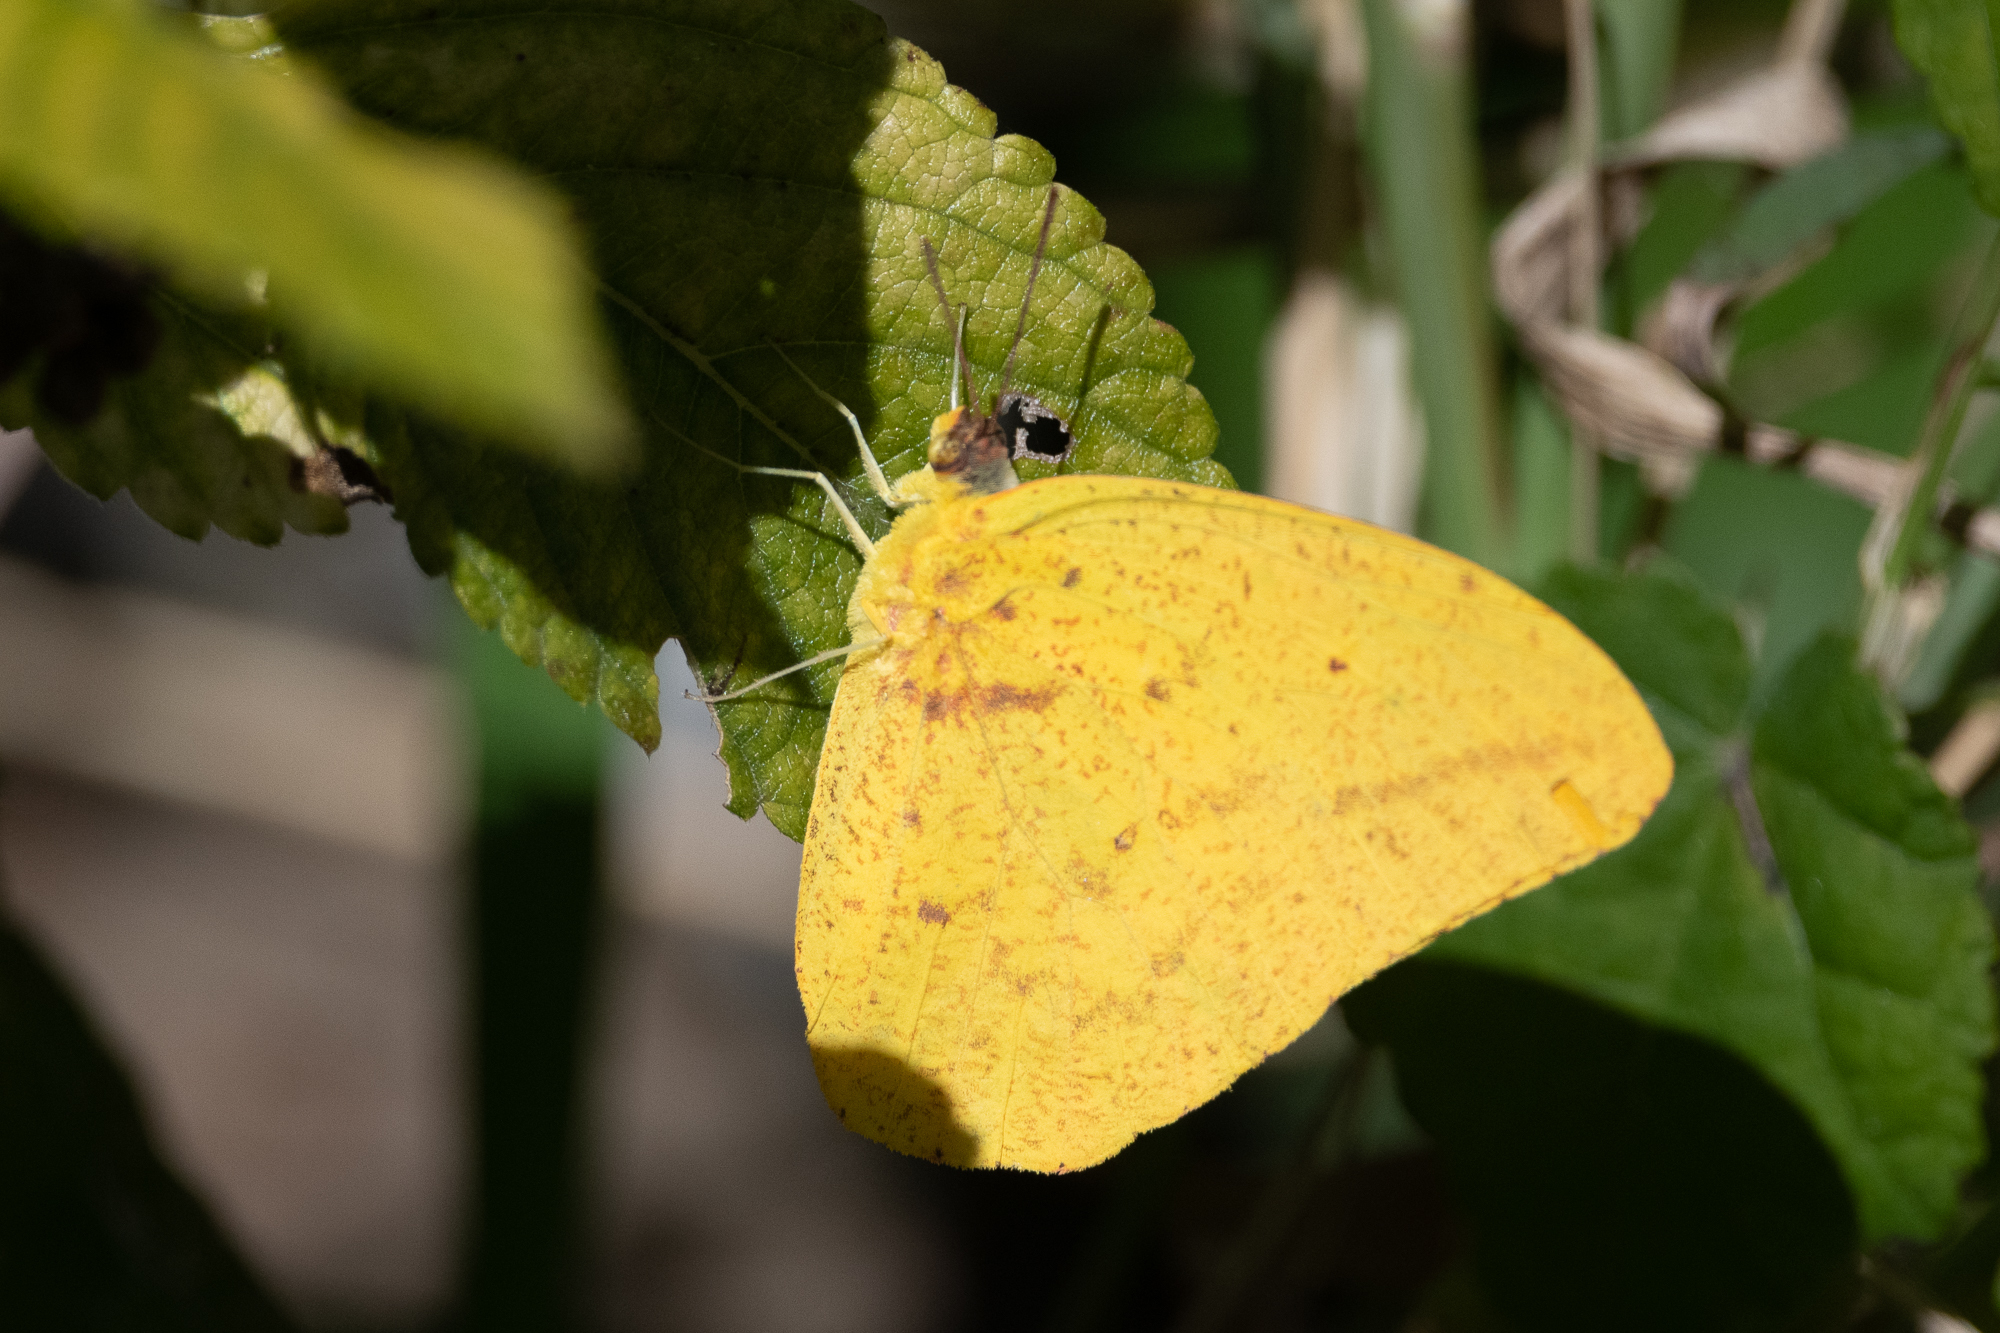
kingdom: Animalia
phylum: Arthropoda
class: Insecta
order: Lepidoptera
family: Pieridae
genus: Phoebis
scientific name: Phoebis agarithe
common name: Large orange sulphur
